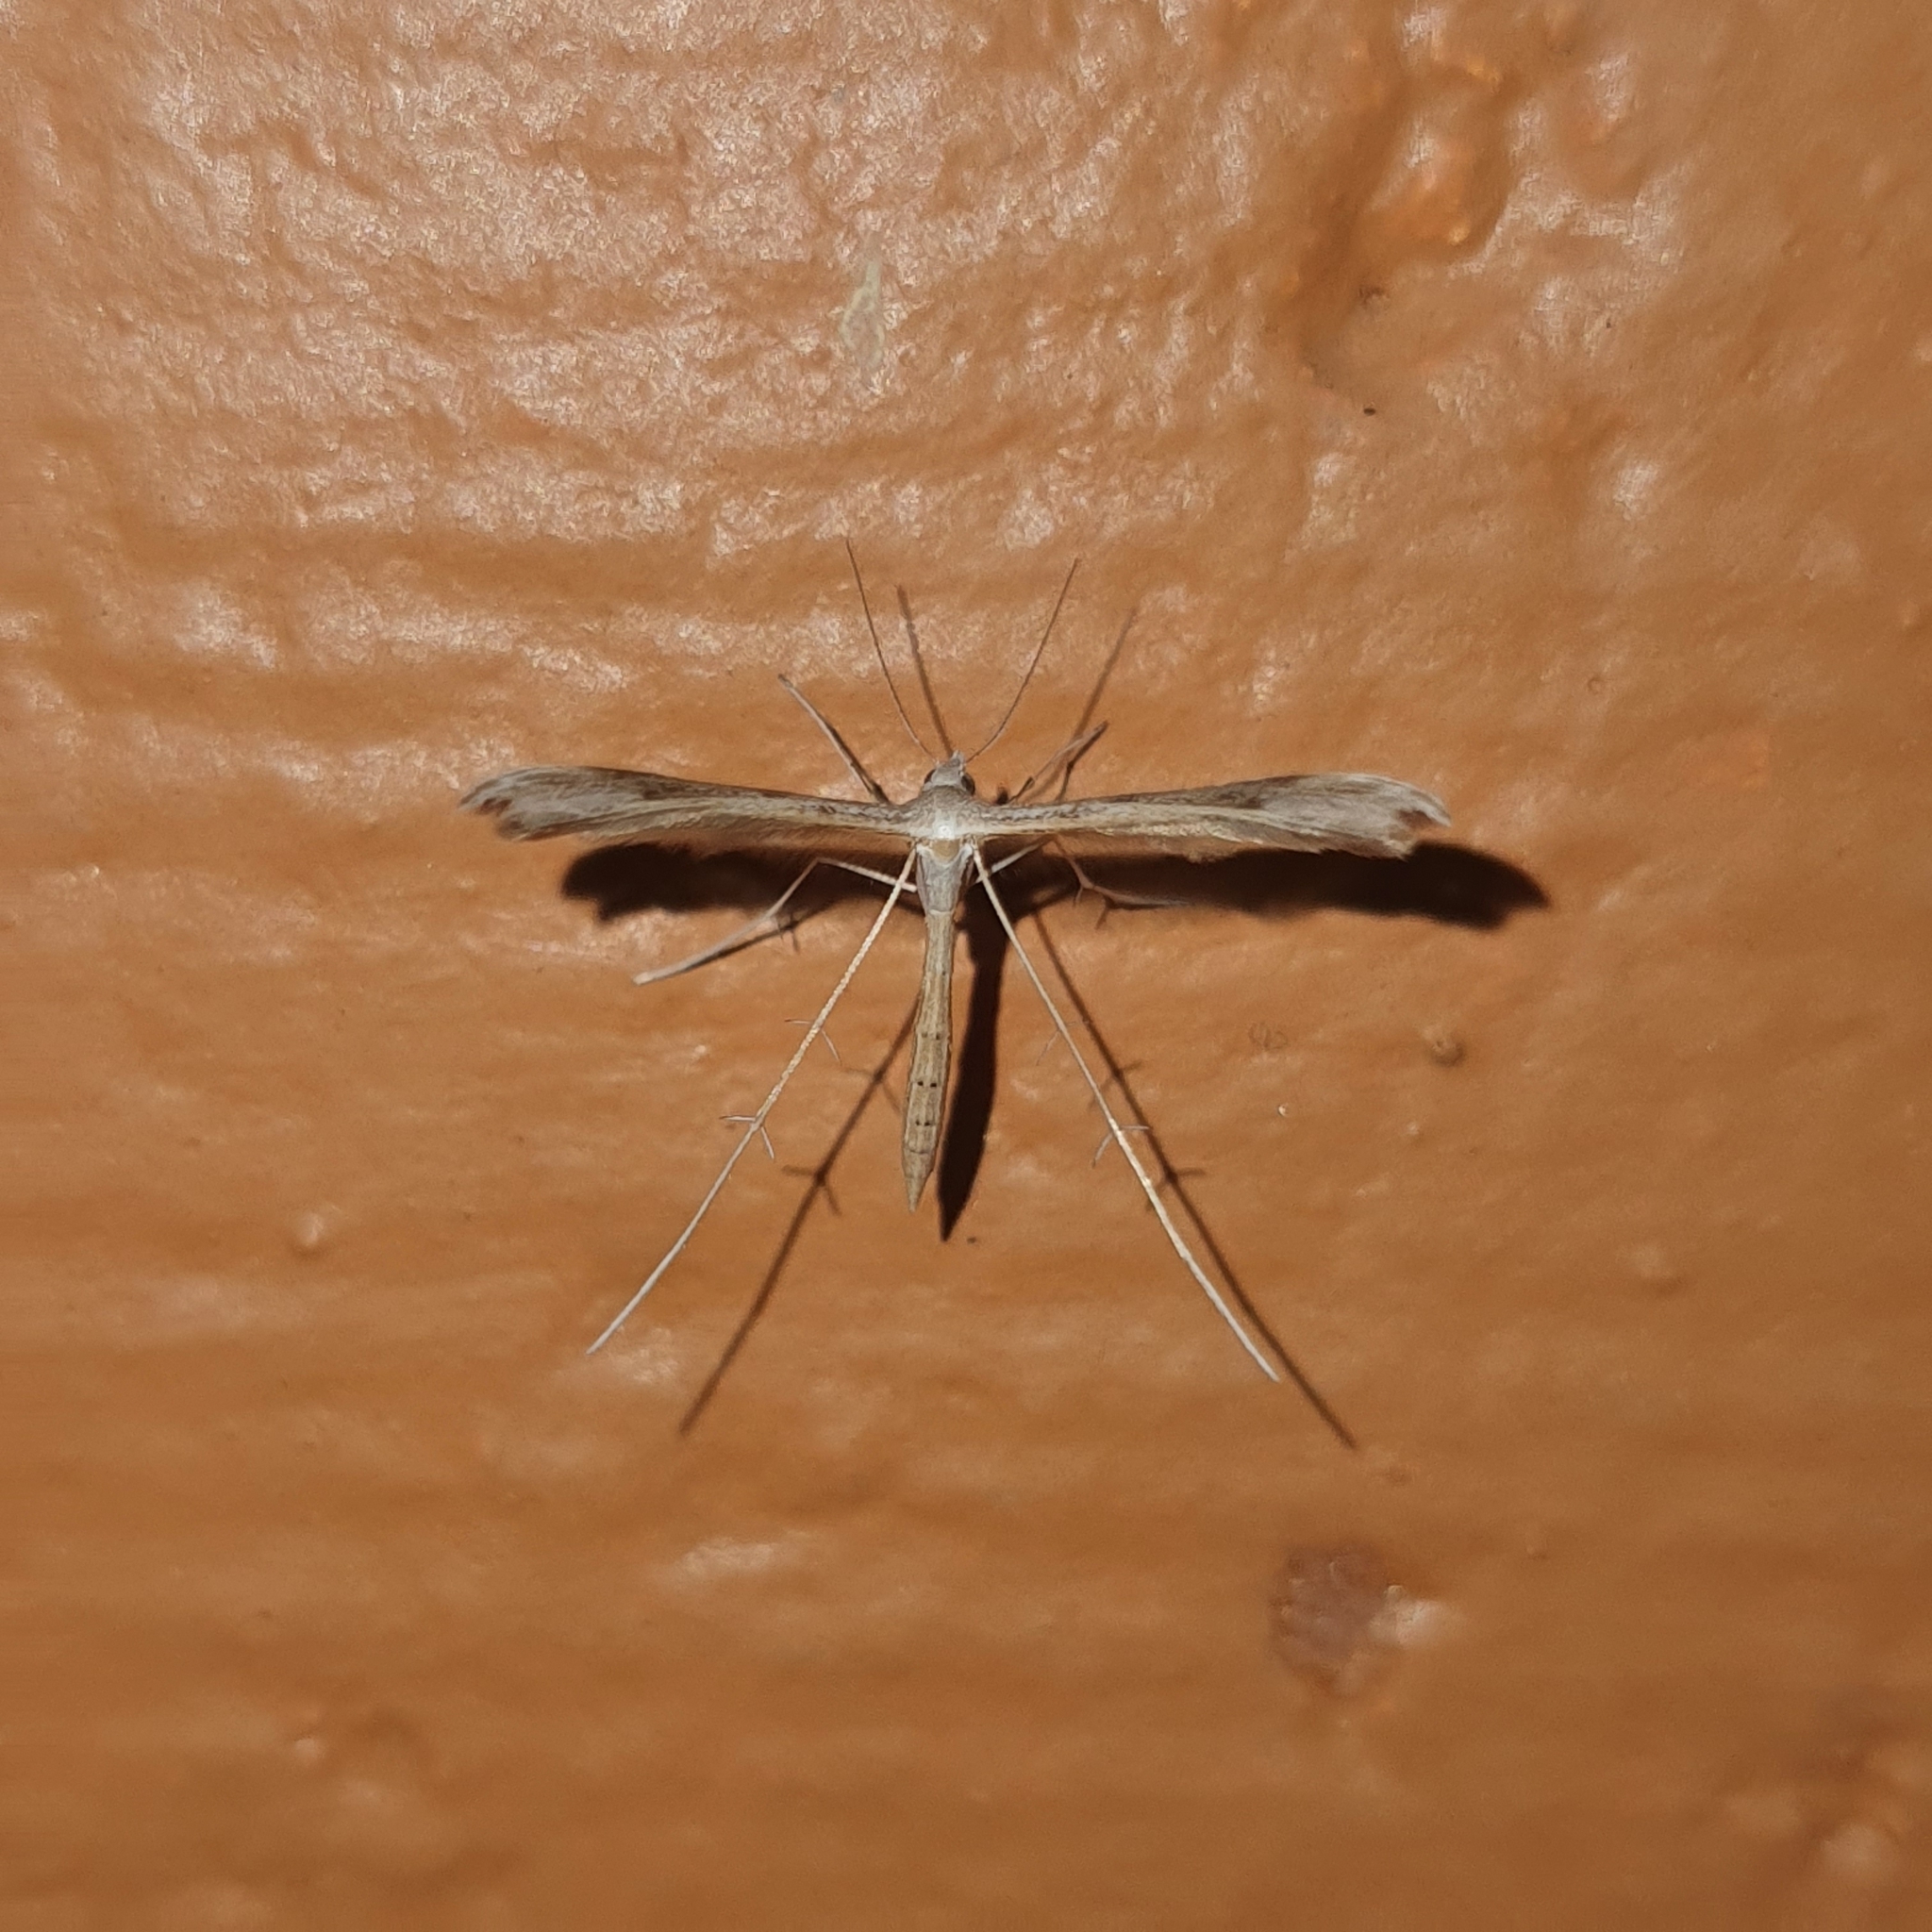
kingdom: Animalia
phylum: Arthropoda
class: Insecta
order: Lepidoptera
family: Pterophoridae
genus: Stenoptilia
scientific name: Stenoptilia zophodactylus
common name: Dowdy plume
